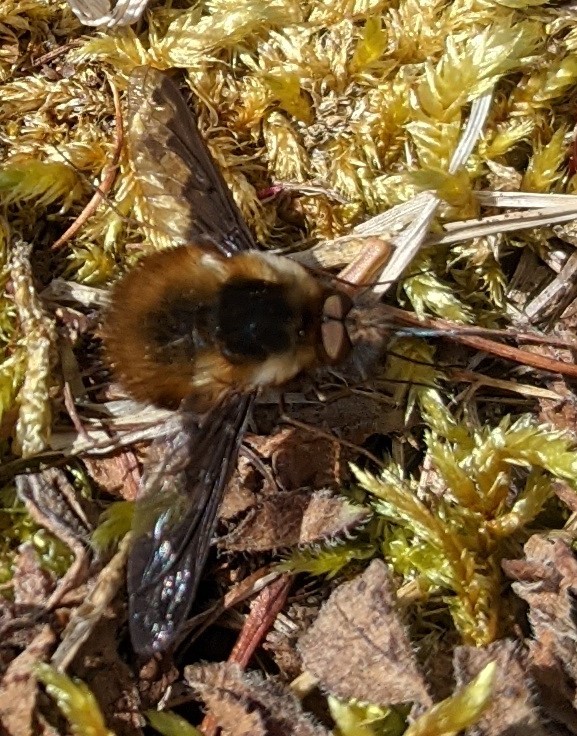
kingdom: Animalia
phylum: Arthropoda
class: Insecta
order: Diptera
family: Bombyliidae
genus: Bombylius
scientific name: Bombylius major
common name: Bee fly
